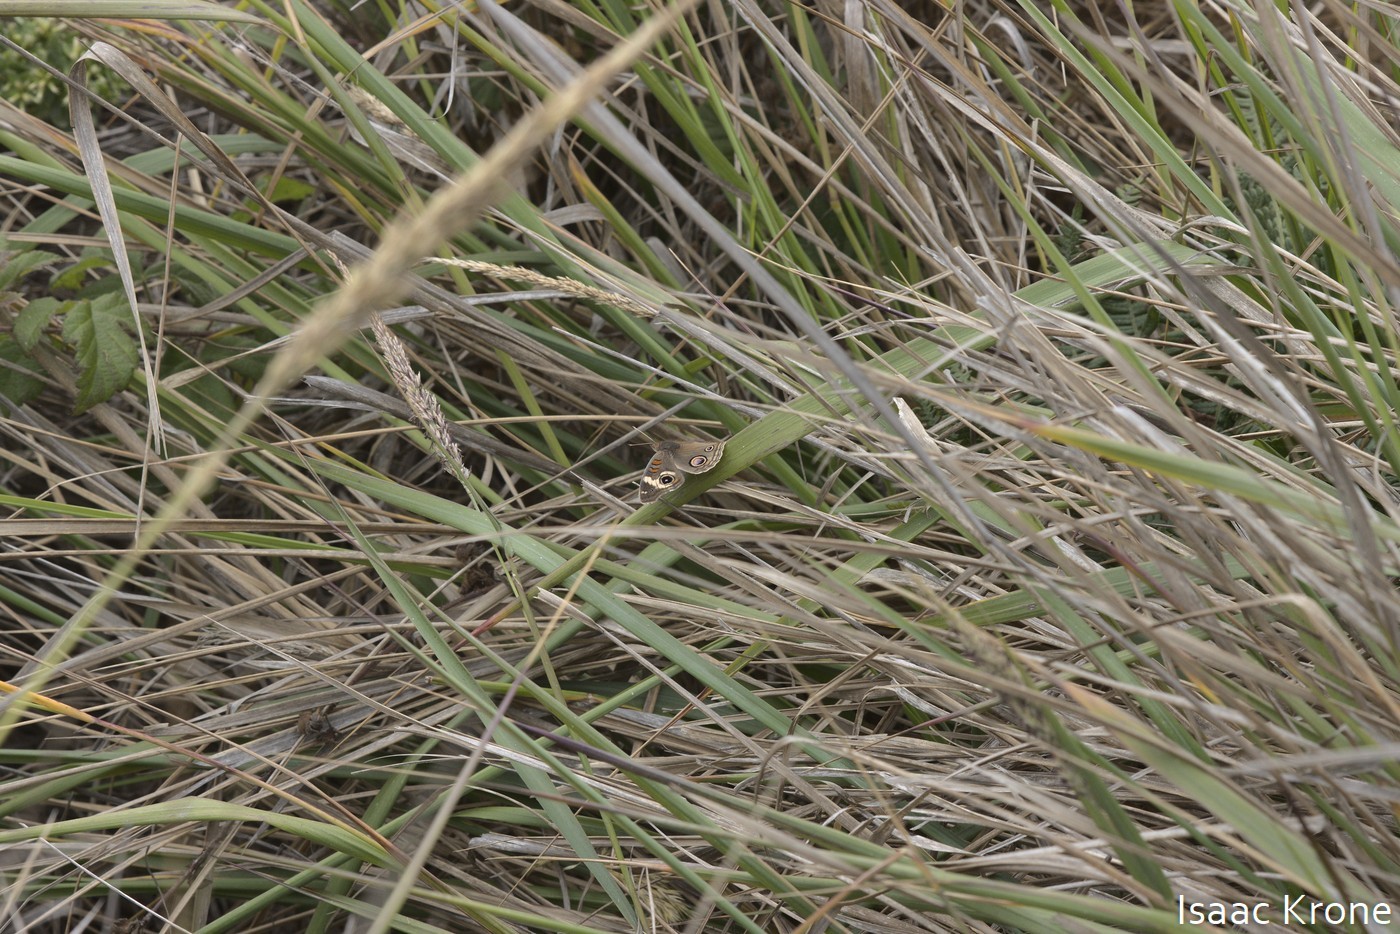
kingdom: Animalia
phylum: Arthropoda
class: Insecta
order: Lepidoptera
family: Nymphalidae
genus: Junonia
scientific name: Junonia grisea
